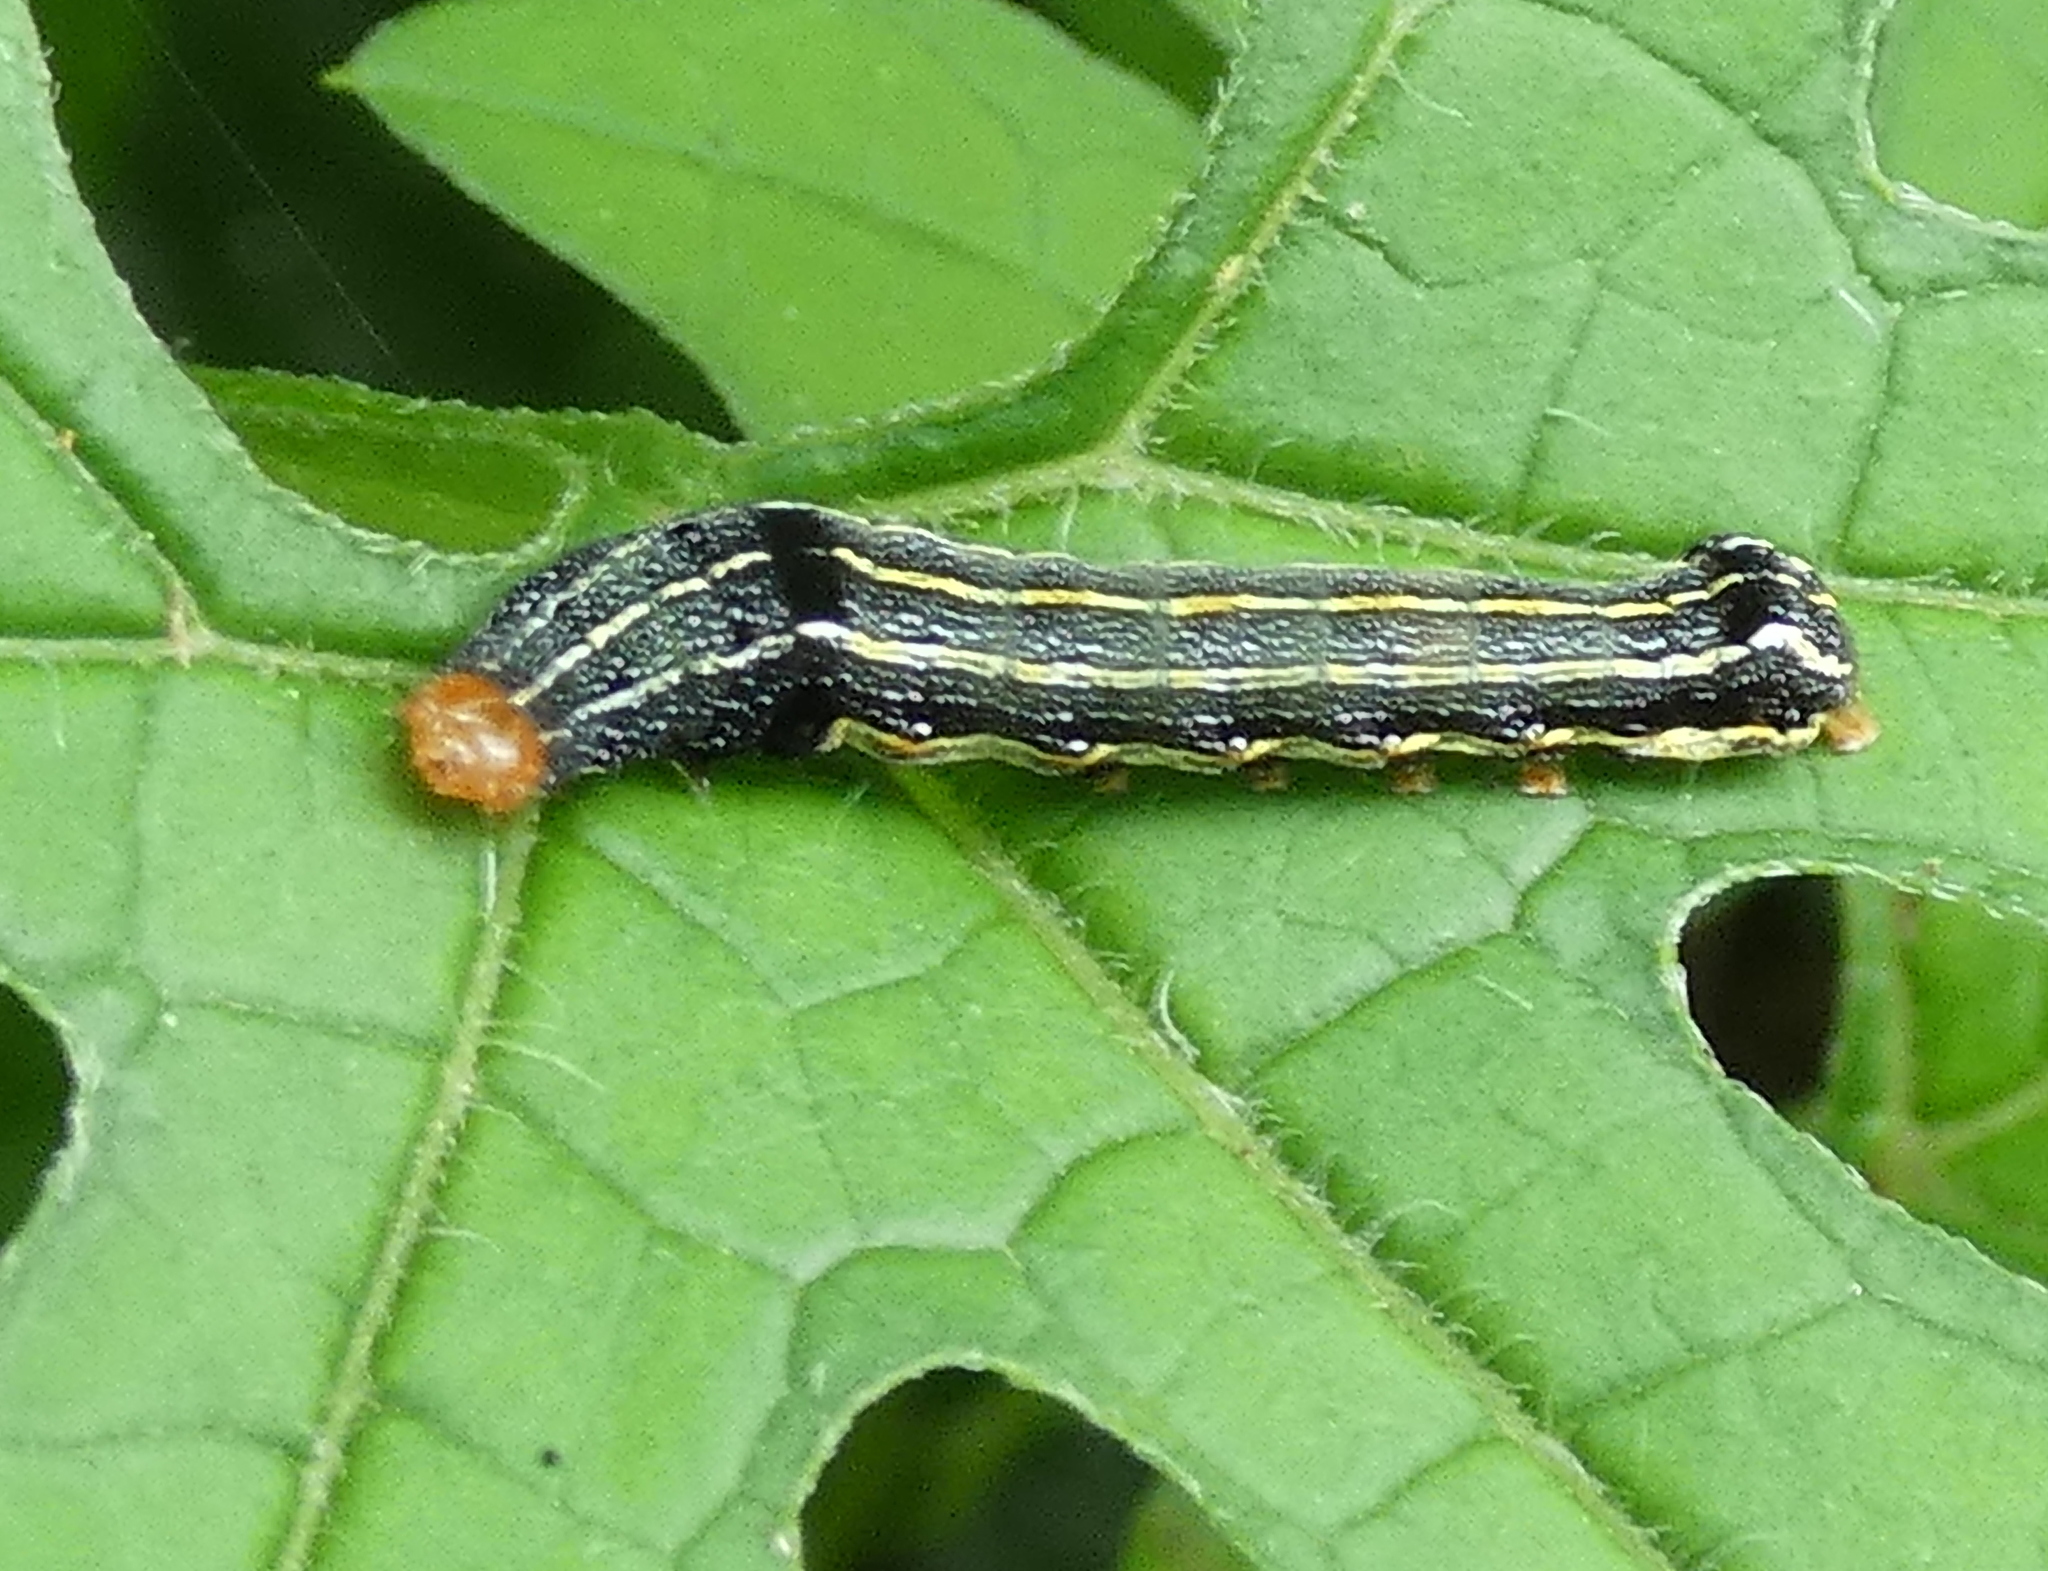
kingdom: Animalia
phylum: Arthropoda
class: Insecta
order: Lepidoptera
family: Noctuidae
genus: Spodoptera
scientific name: Spodoptera eridania
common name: Southern army worm
